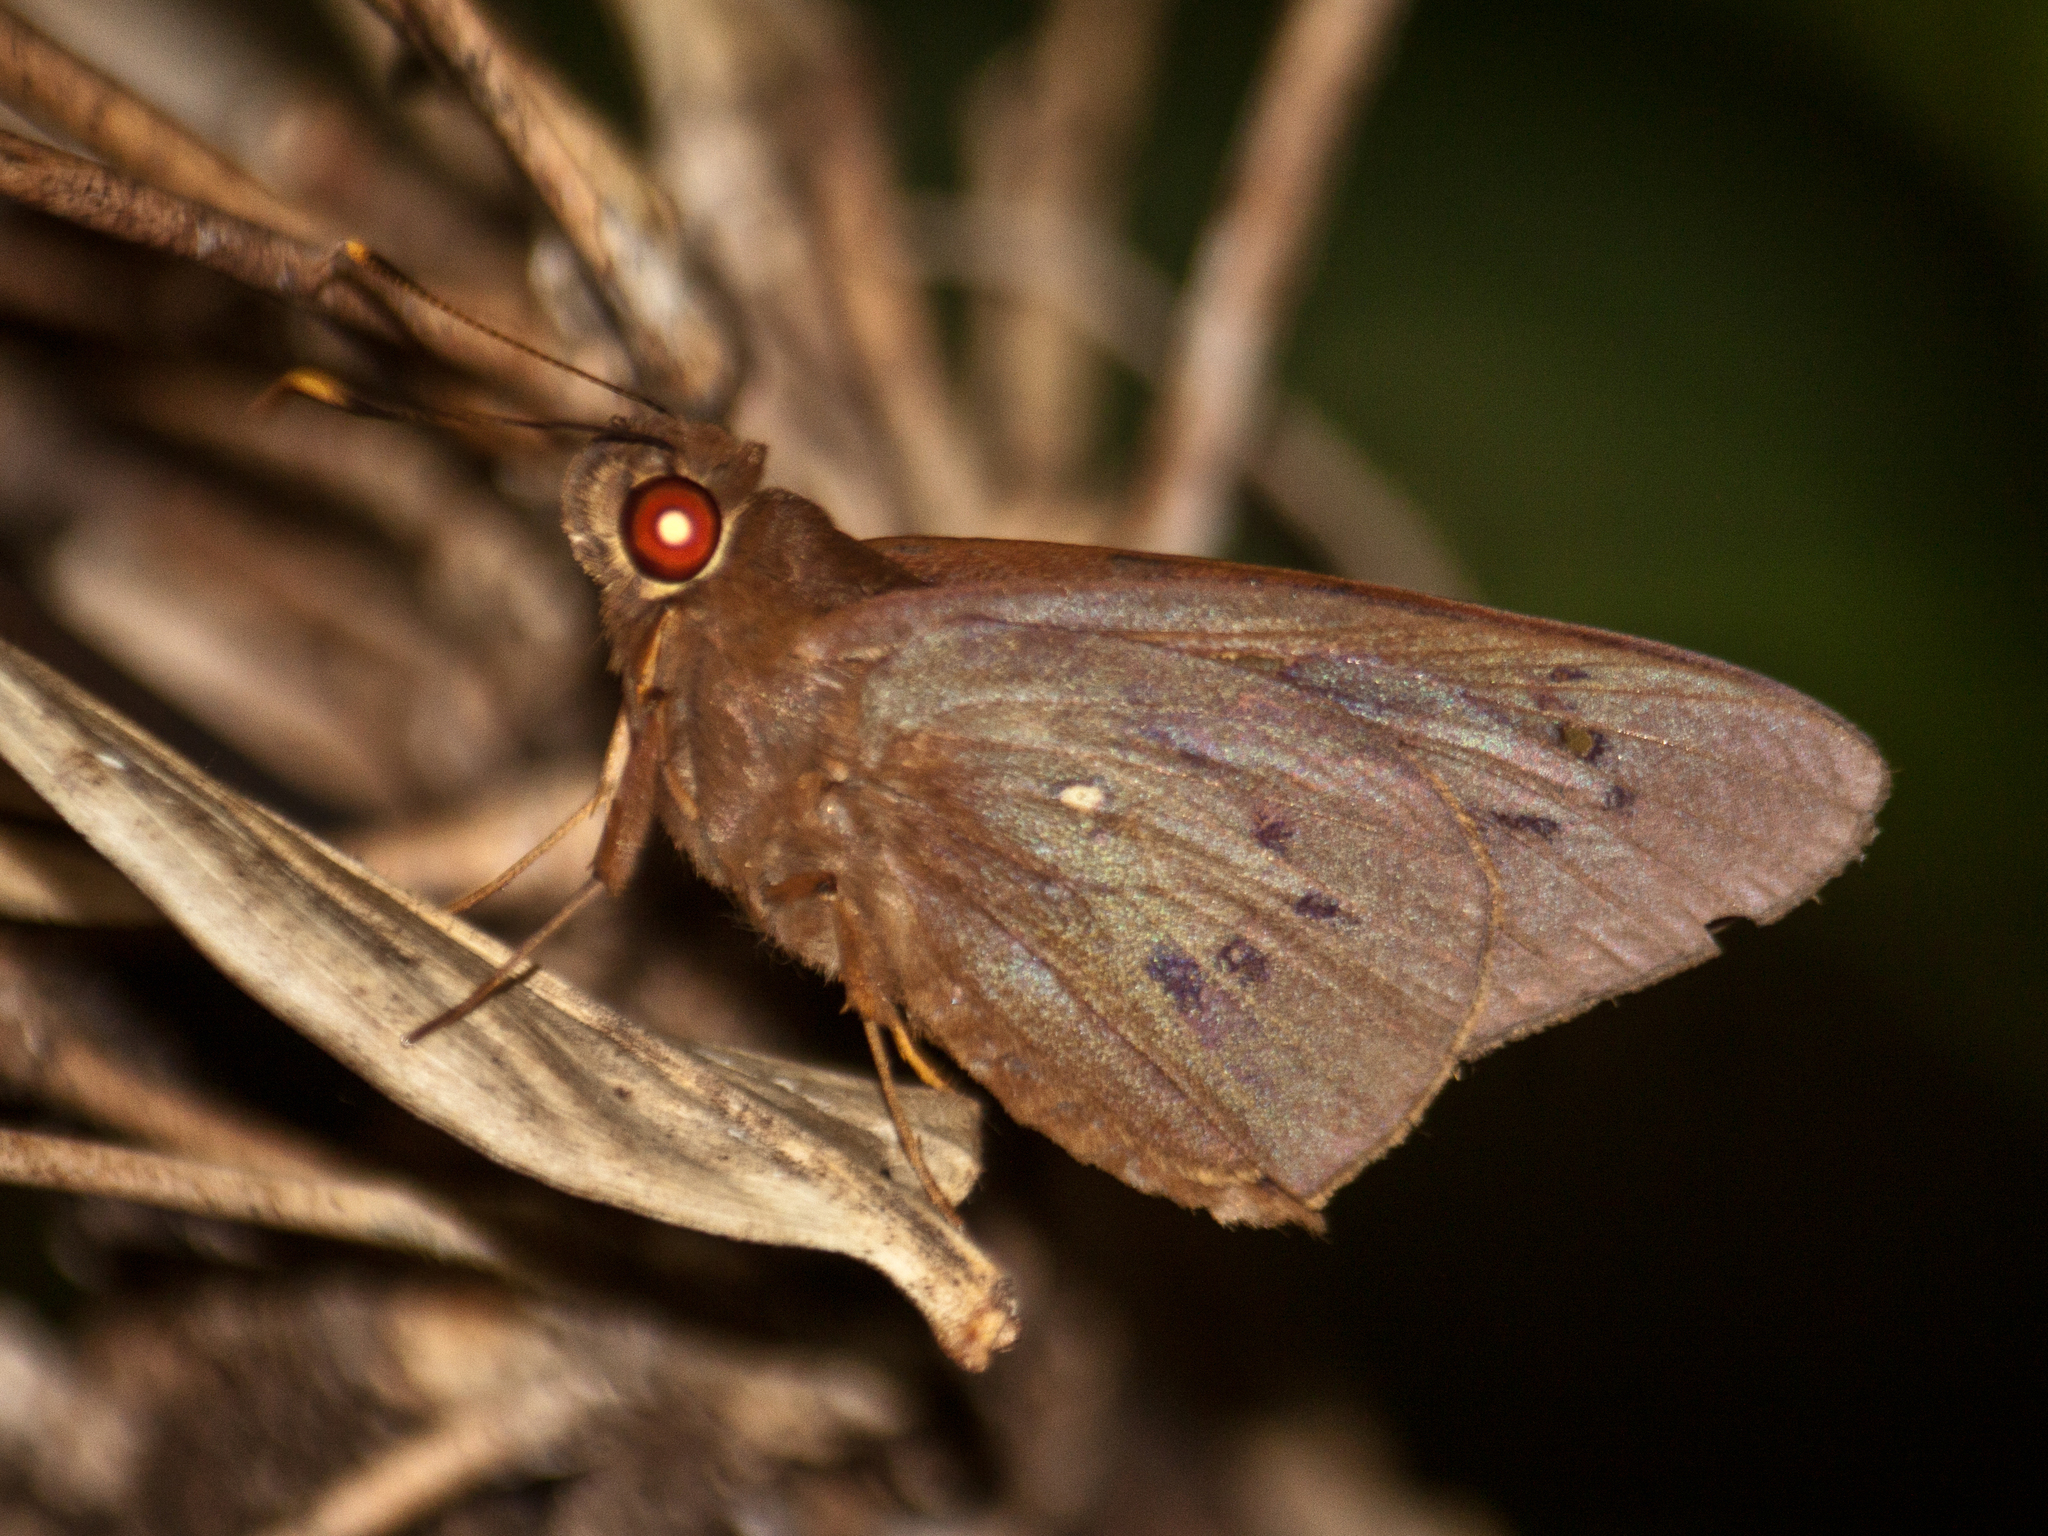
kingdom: Animalia
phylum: Arthropoda
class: Insecta
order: Lepidoptera
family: Hesperiidae
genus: Hidari
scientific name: Hidari irava
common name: Coconut skipper
